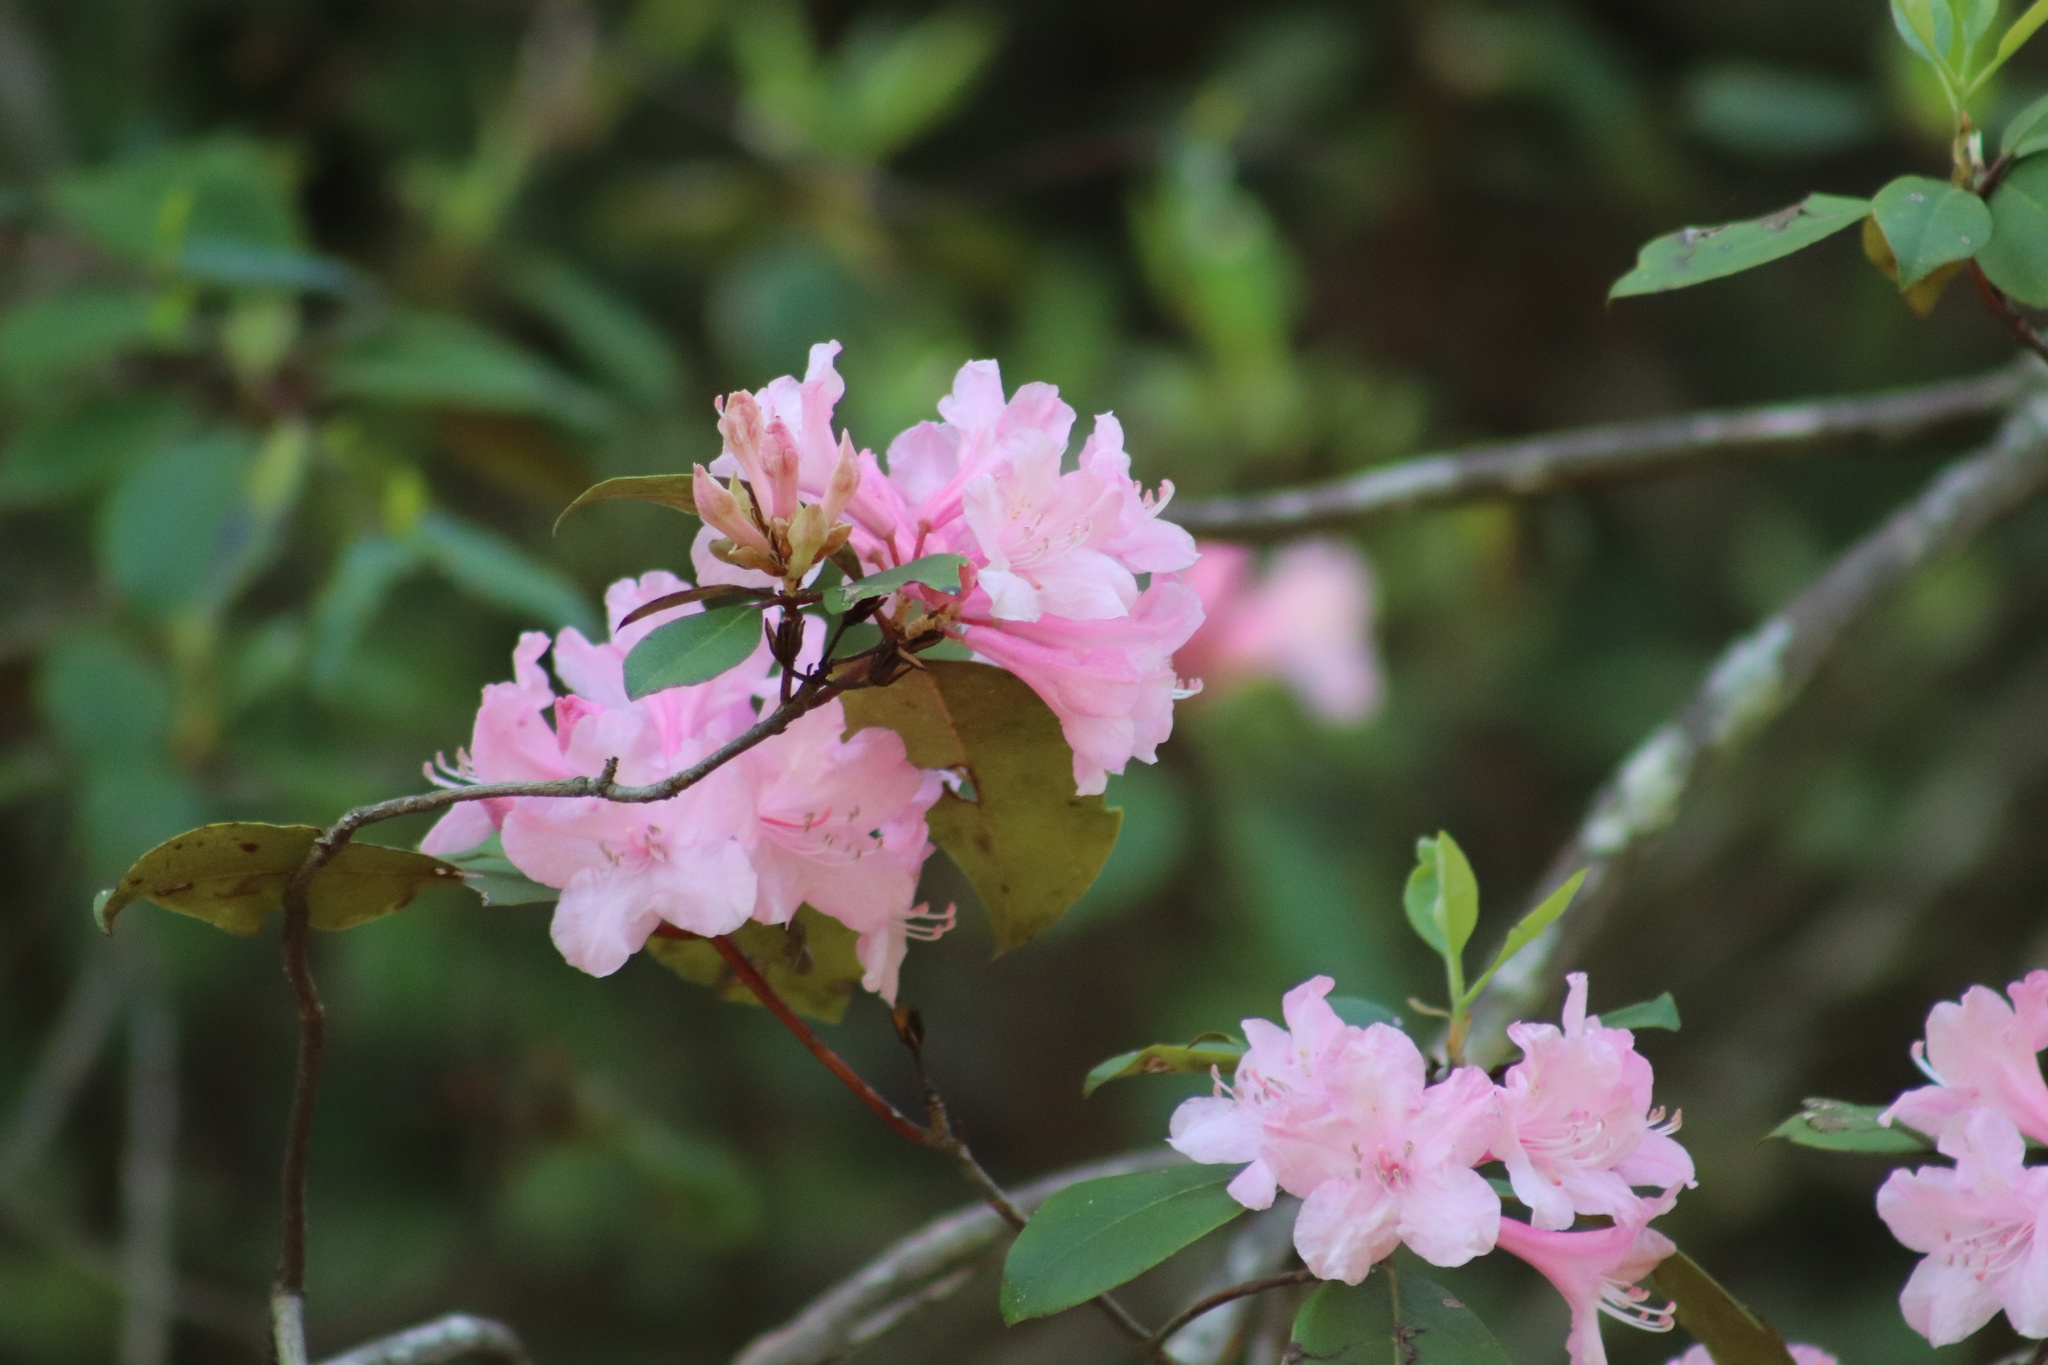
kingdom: Plantae
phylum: Tracheophyta
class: Magnoliopsida
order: Ericales
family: Ericaceae
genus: Rhododendron
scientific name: Rhododendron minus
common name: Piedmont rhododendron
